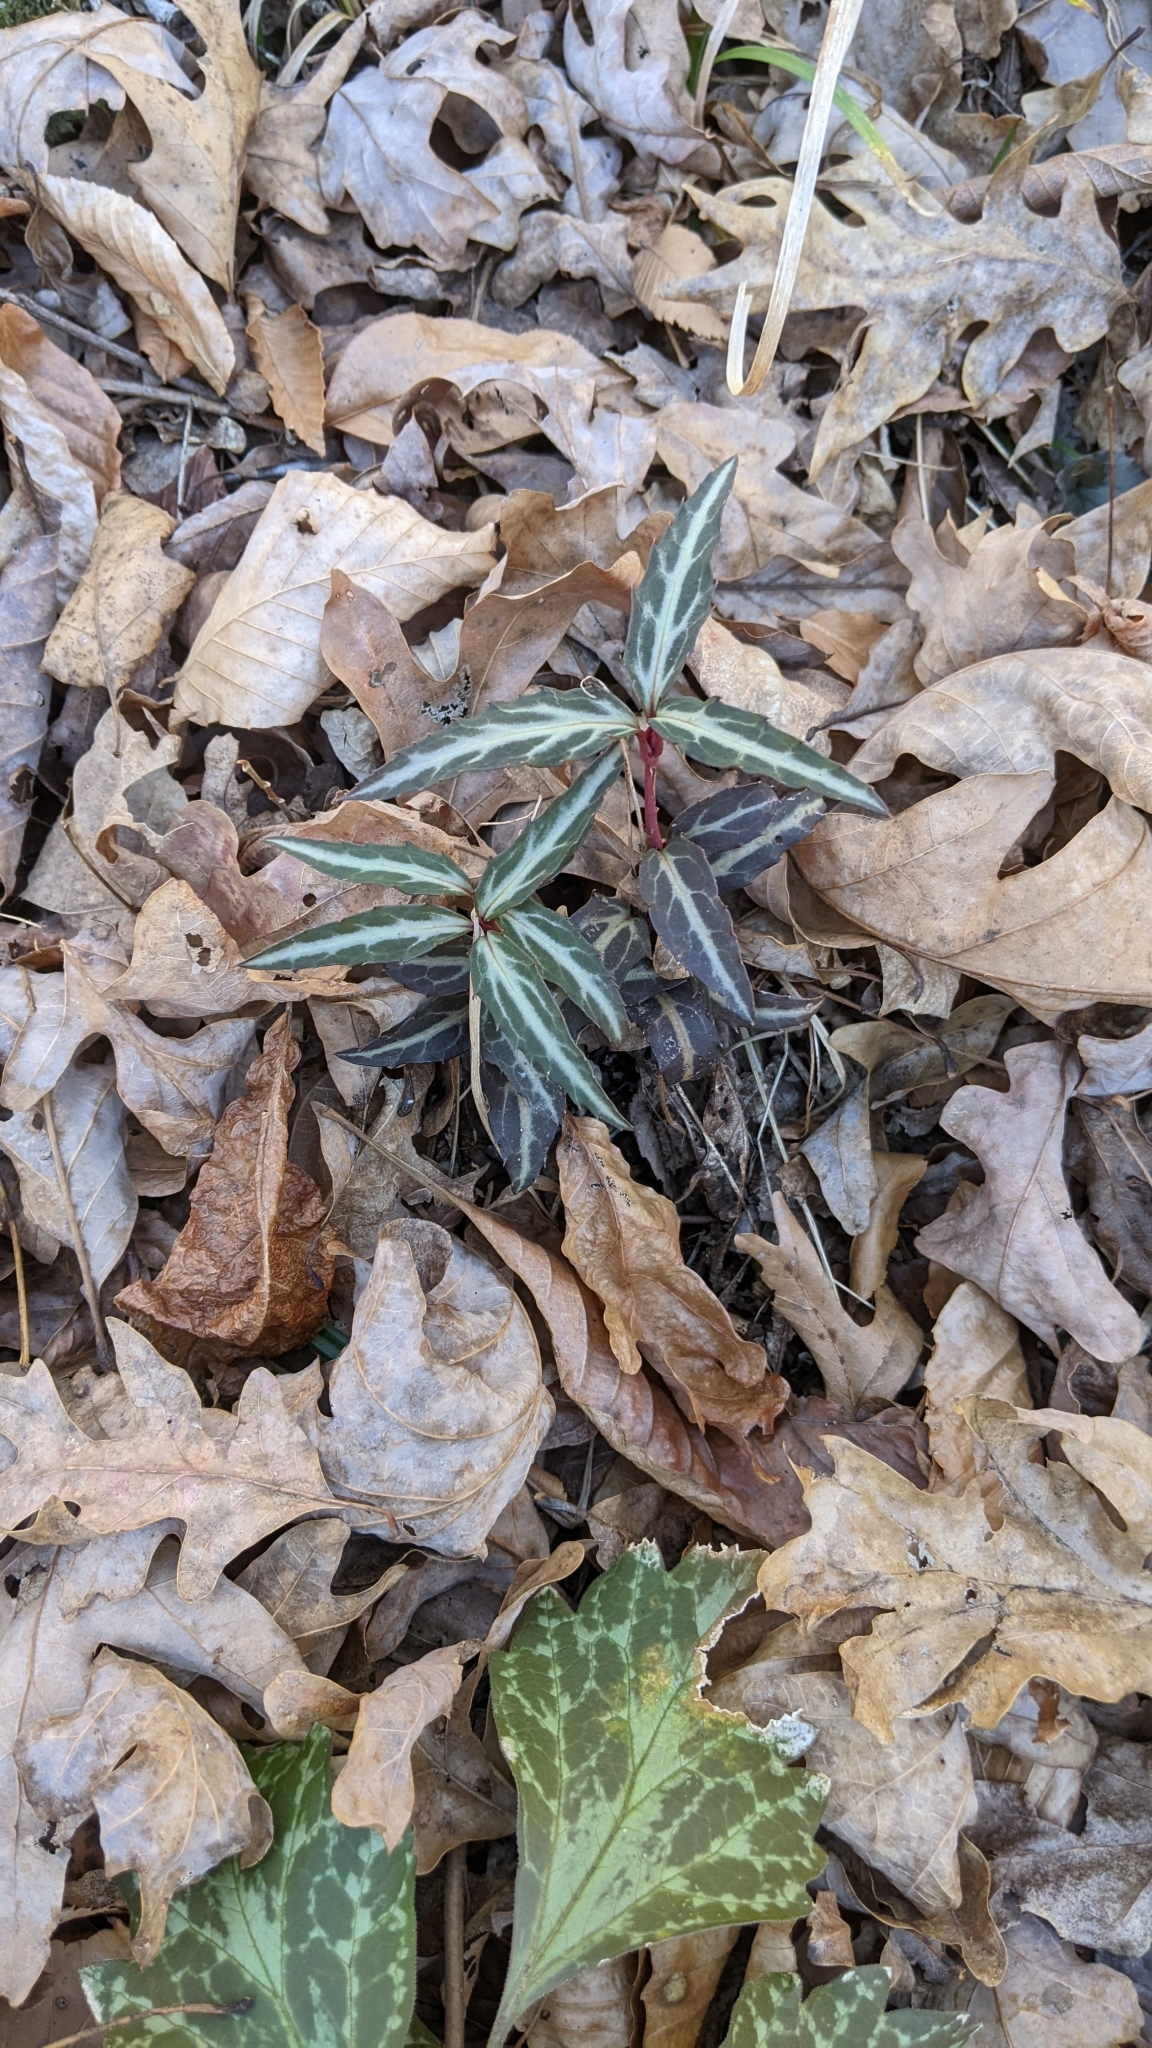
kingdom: Plantae
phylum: Tracheophyta
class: Magnoliopsida
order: Ericales
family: Ericaceae
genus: Chimaphila
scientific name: Chimaphila maculata
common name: Spotted pipsissewa
